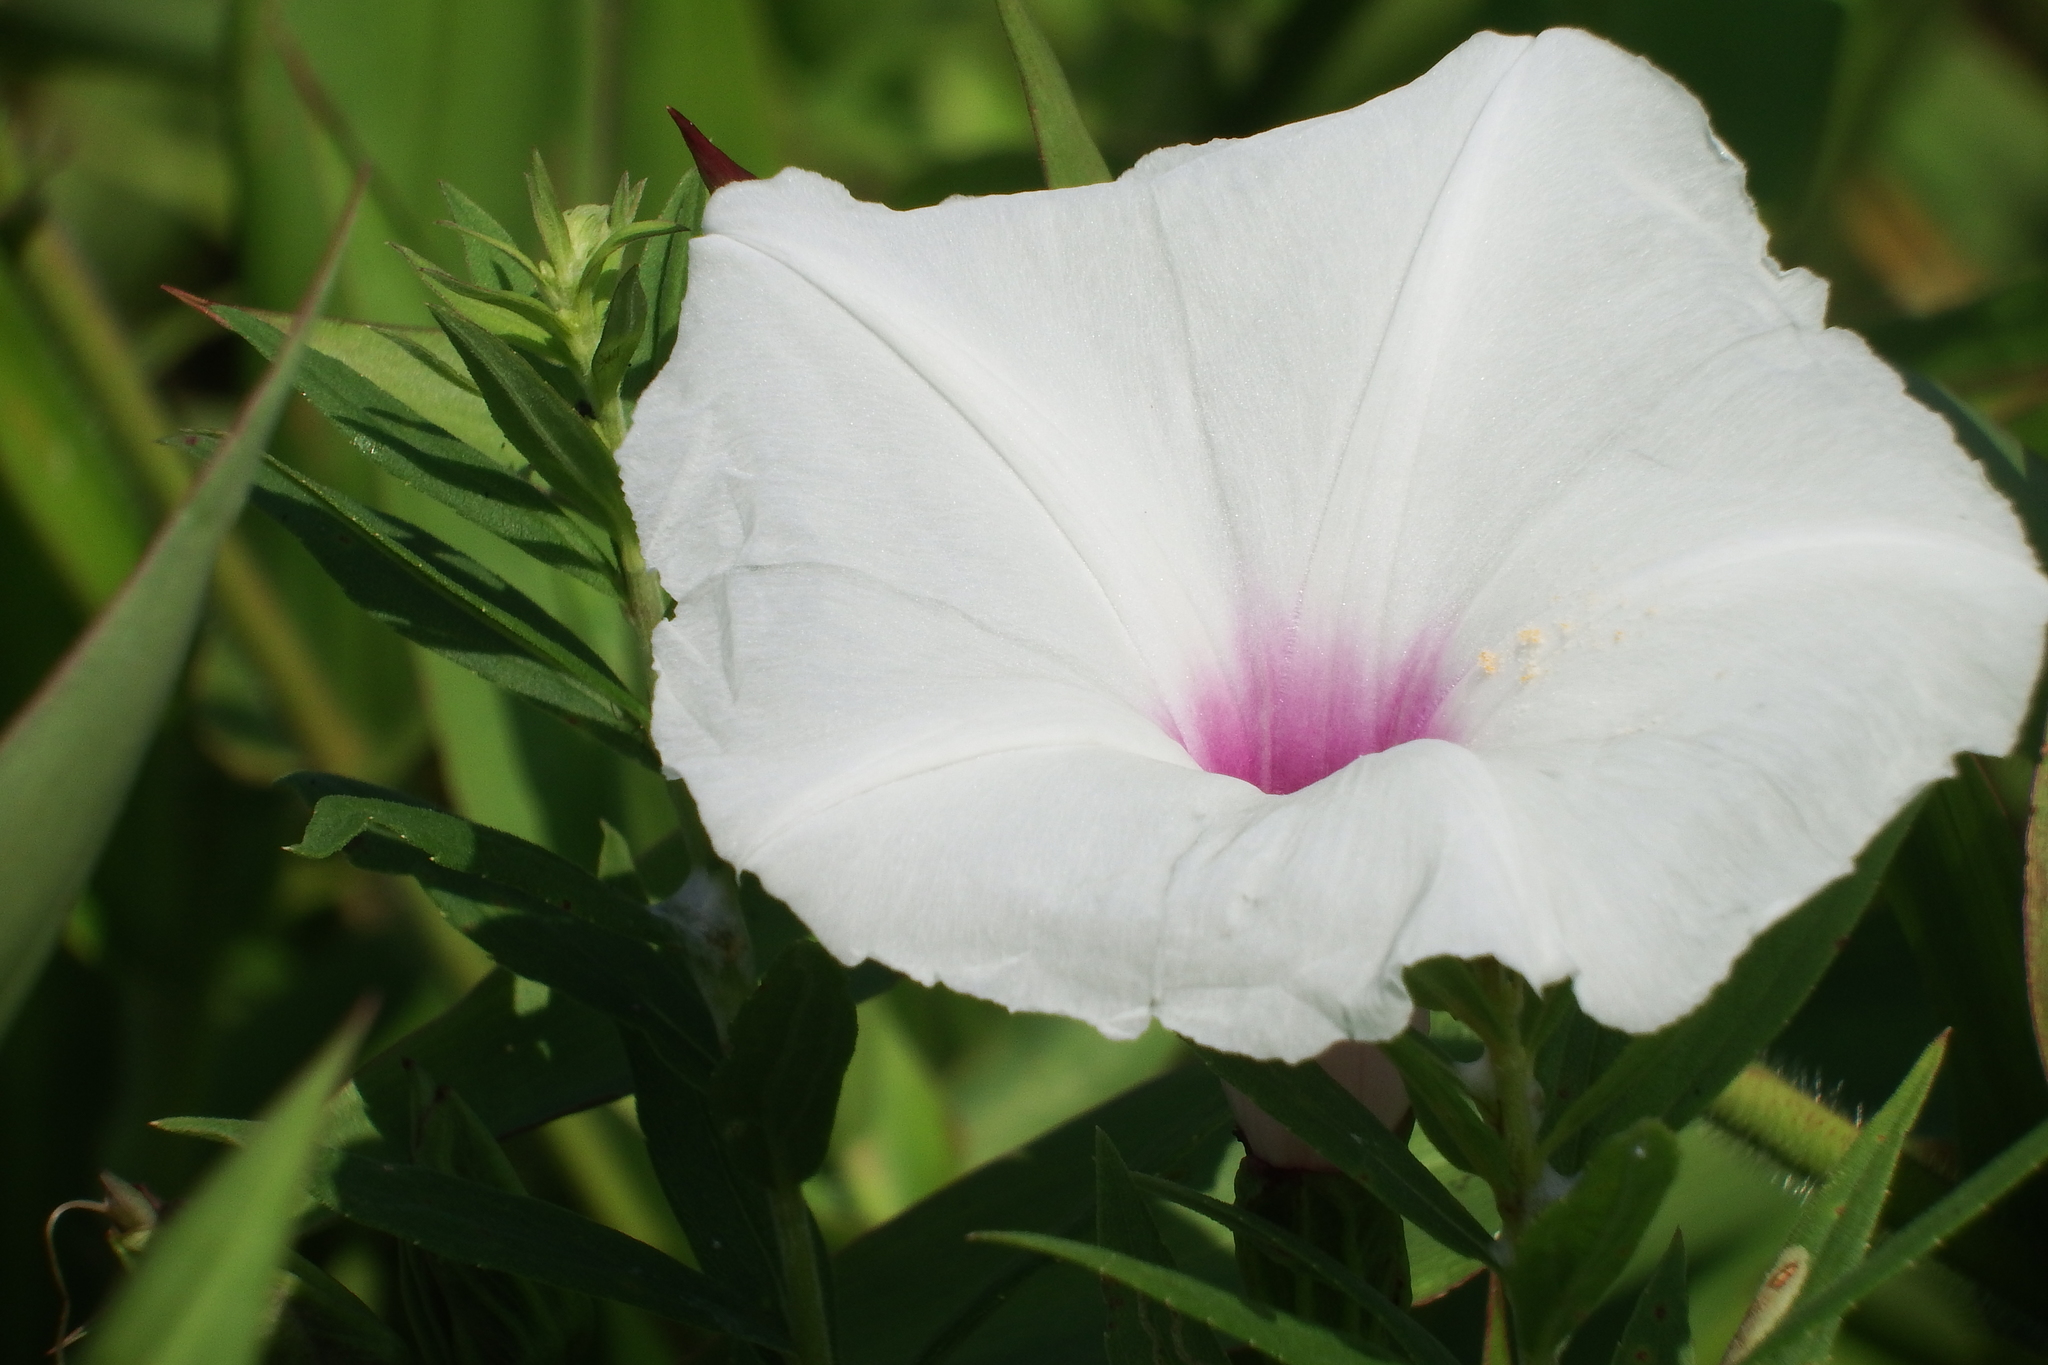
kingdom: Plantae
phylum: Tracheophyta
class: Magnoliopsida
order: Solanales
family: Convolvulaceae
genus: Ipomoea
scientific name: Ipomoea pandurata
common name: Man-of-the-earth
